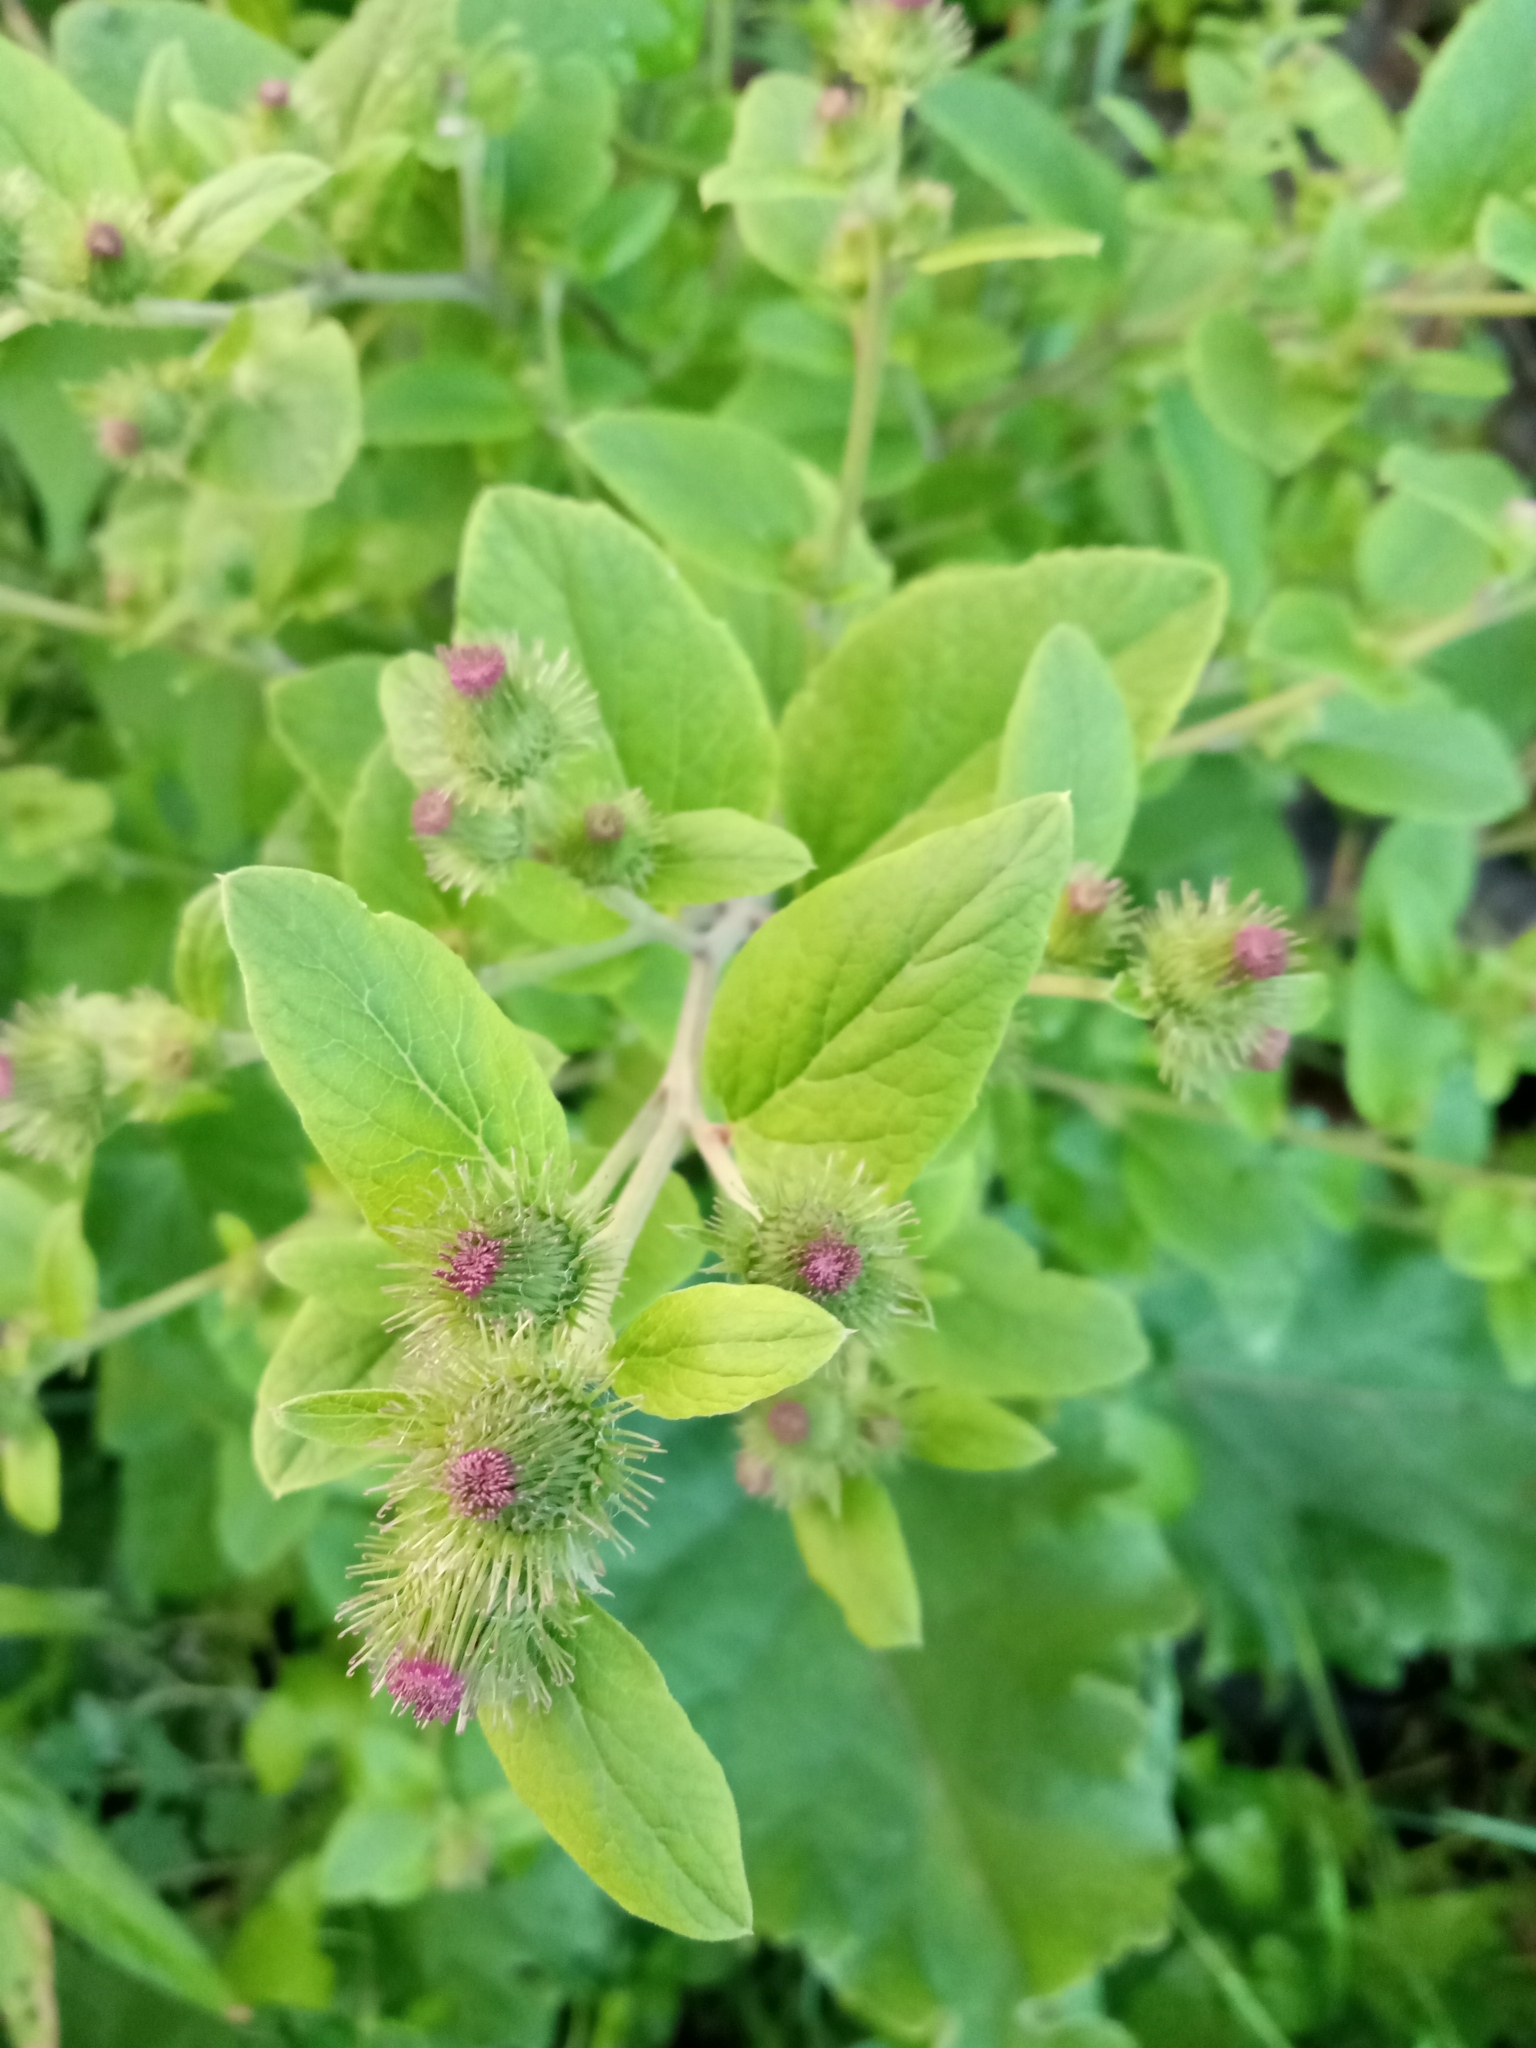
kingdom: Plantae
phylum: Tracheophyta
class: Magnoliopsida
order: Asterales
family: Asteraceae
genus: Arctium
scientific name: Arctium minus
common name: Lesser burdock
